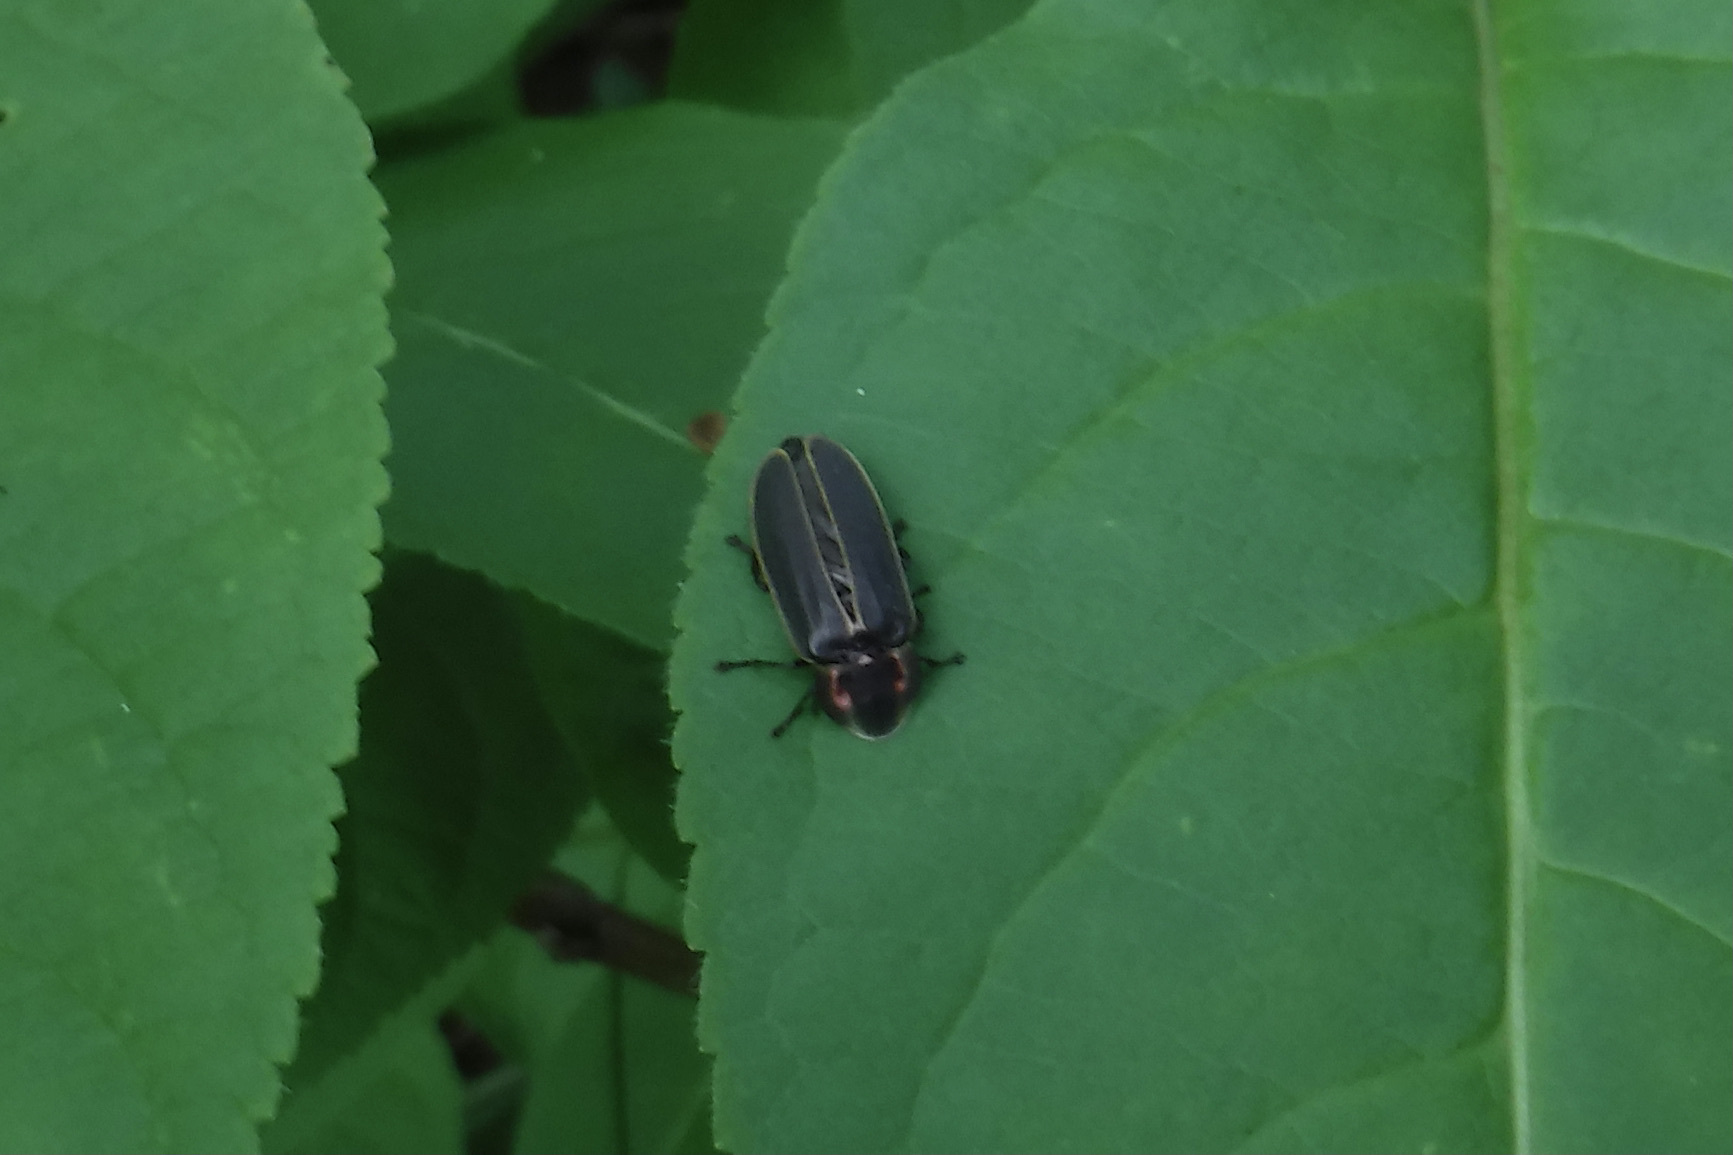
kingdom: Animalia
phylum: Arthropoda
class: Insecta
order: Coleoptera
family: Lampyridae
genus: Photinus
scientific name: Photinus corrusca
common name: Winter firefly
